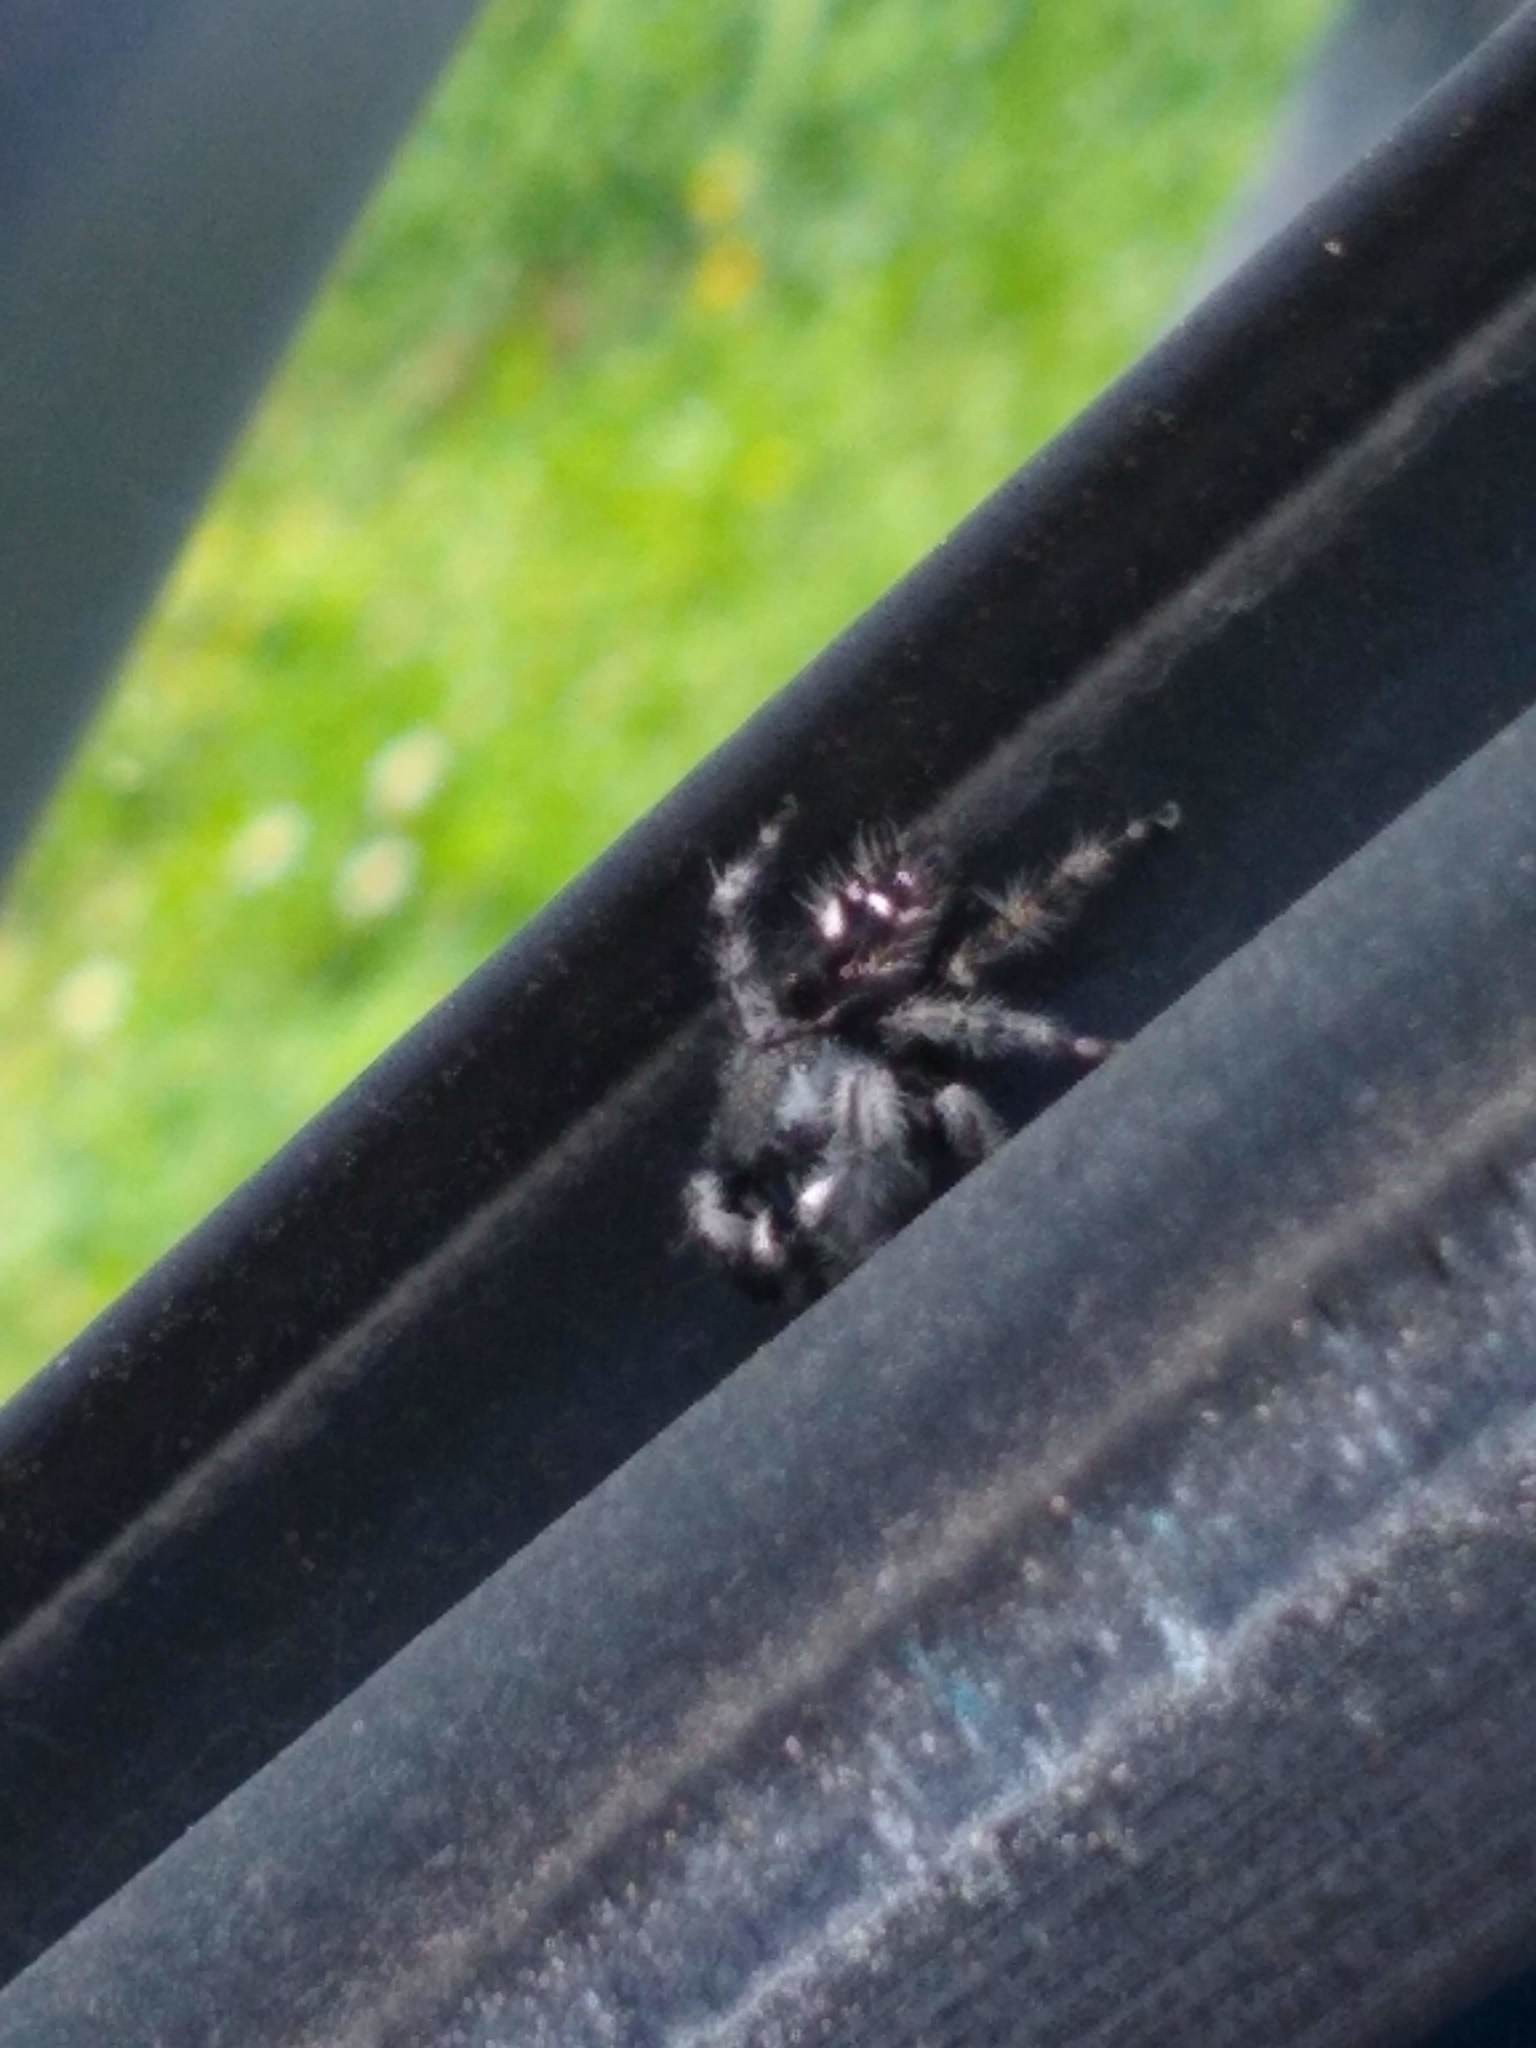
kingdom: Animalia
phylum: Arthropoda
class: Arachnida
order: Araneae
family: Salticidae
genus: Phidippus
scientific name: Phidippus audax
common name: Bold jumper
